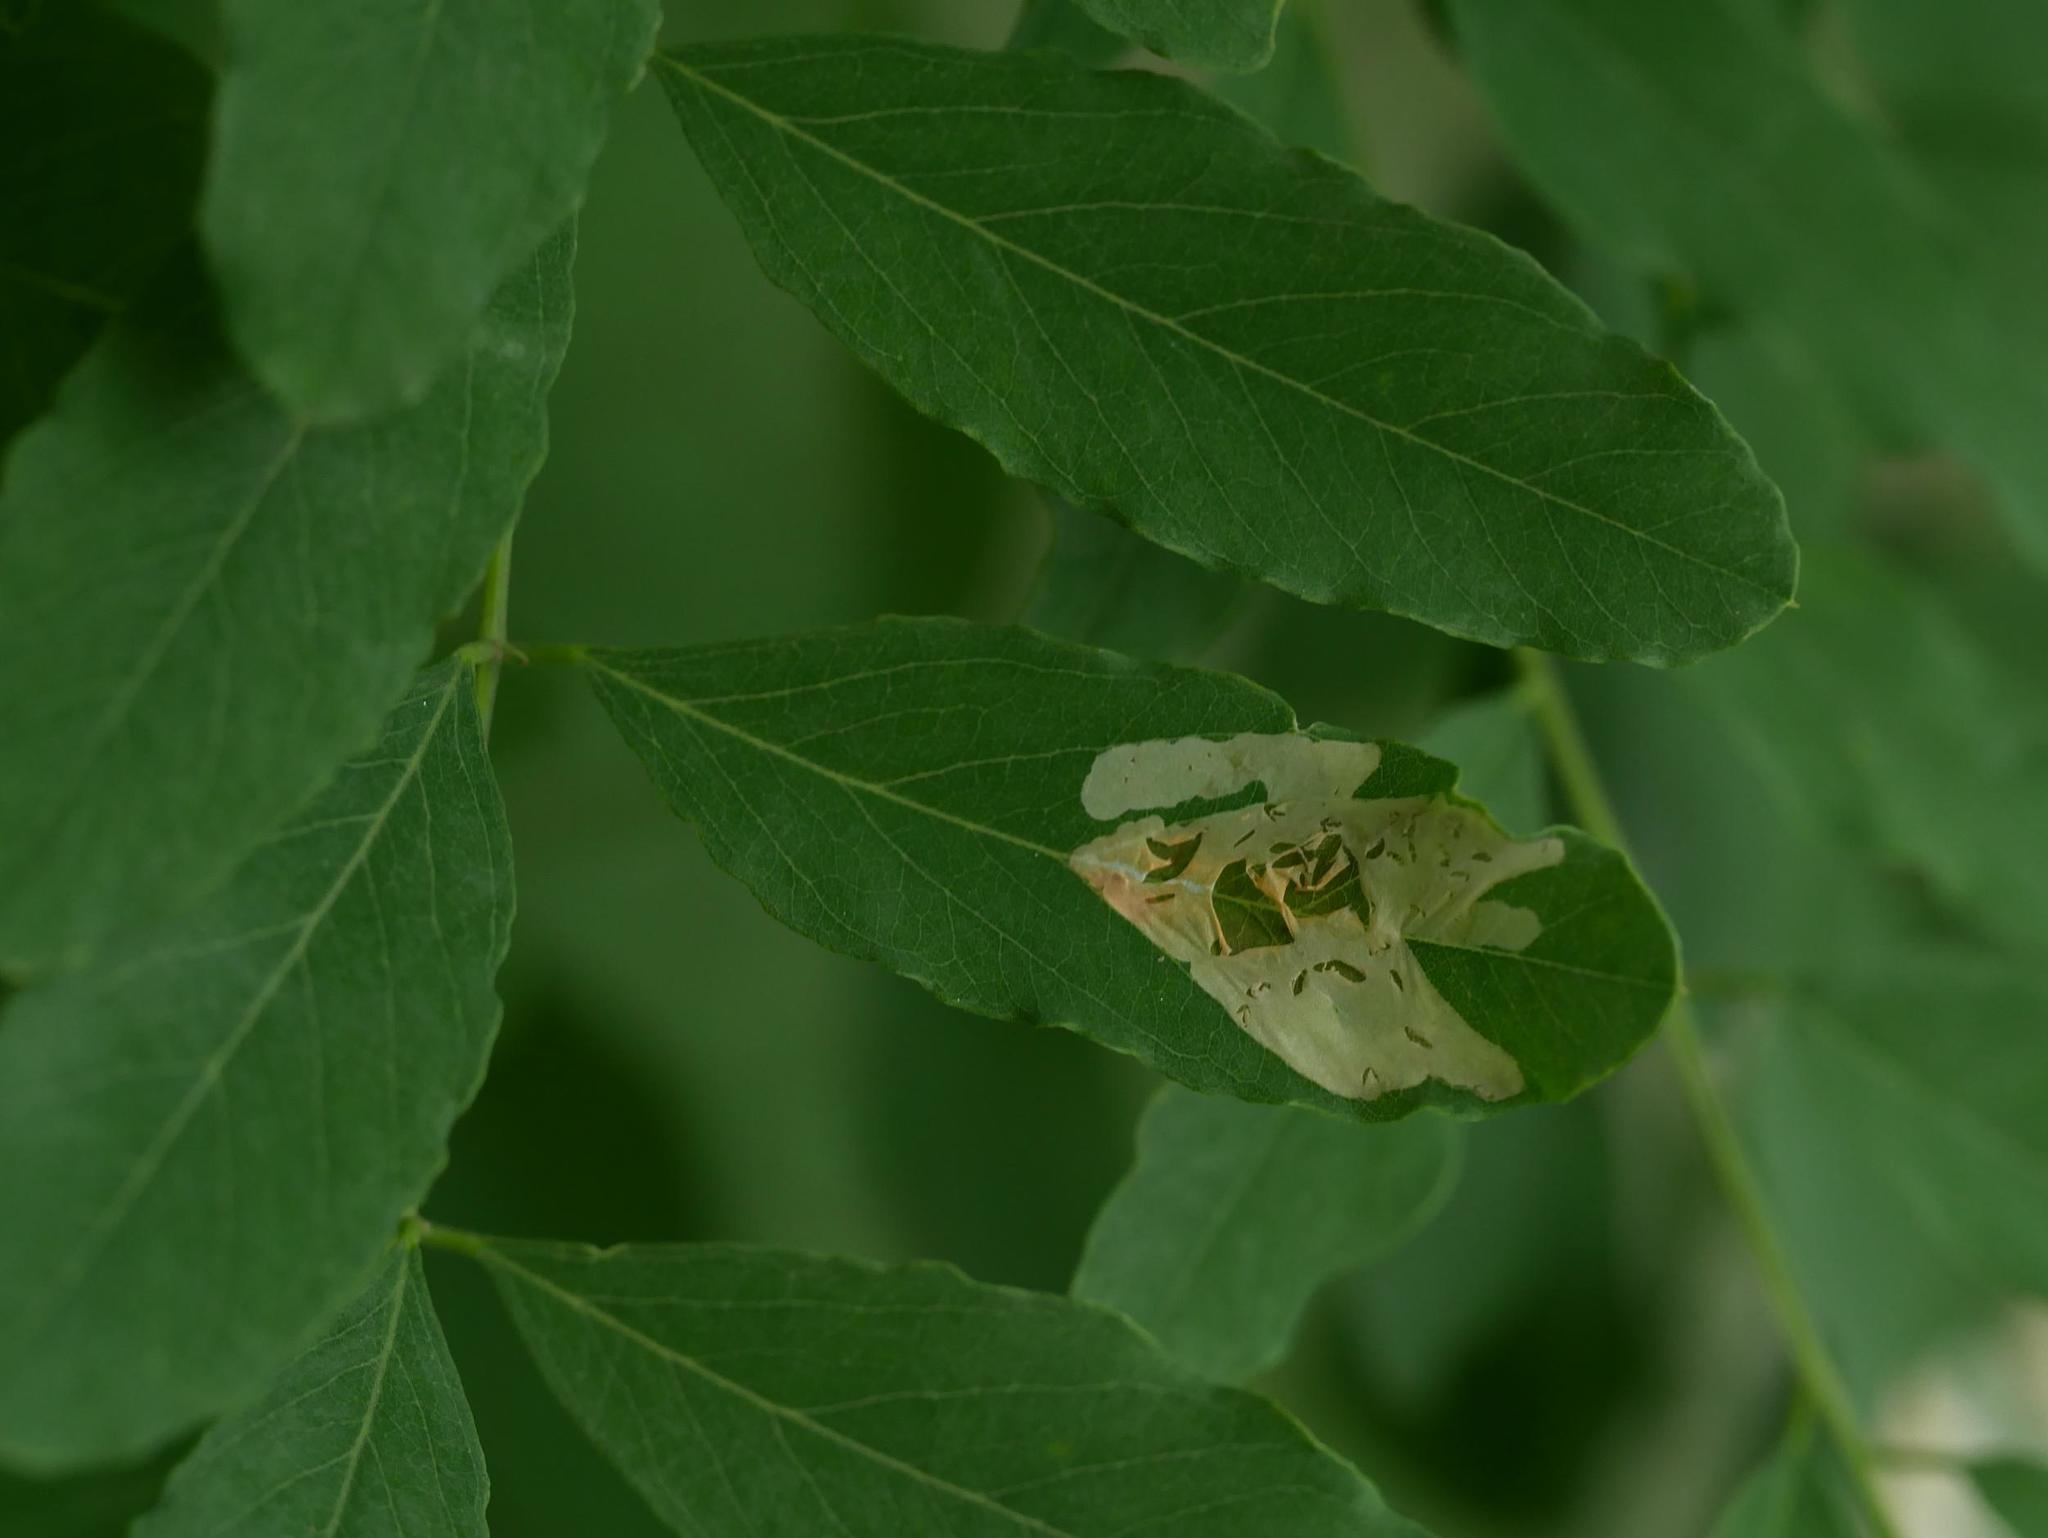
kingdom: Animalia
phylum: Arthropoda
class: Insecta
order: Lepidoptera
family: Gracillariidae
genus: Parectopa
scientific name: Parectopa robiniella
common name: Locust digitate leafminer
